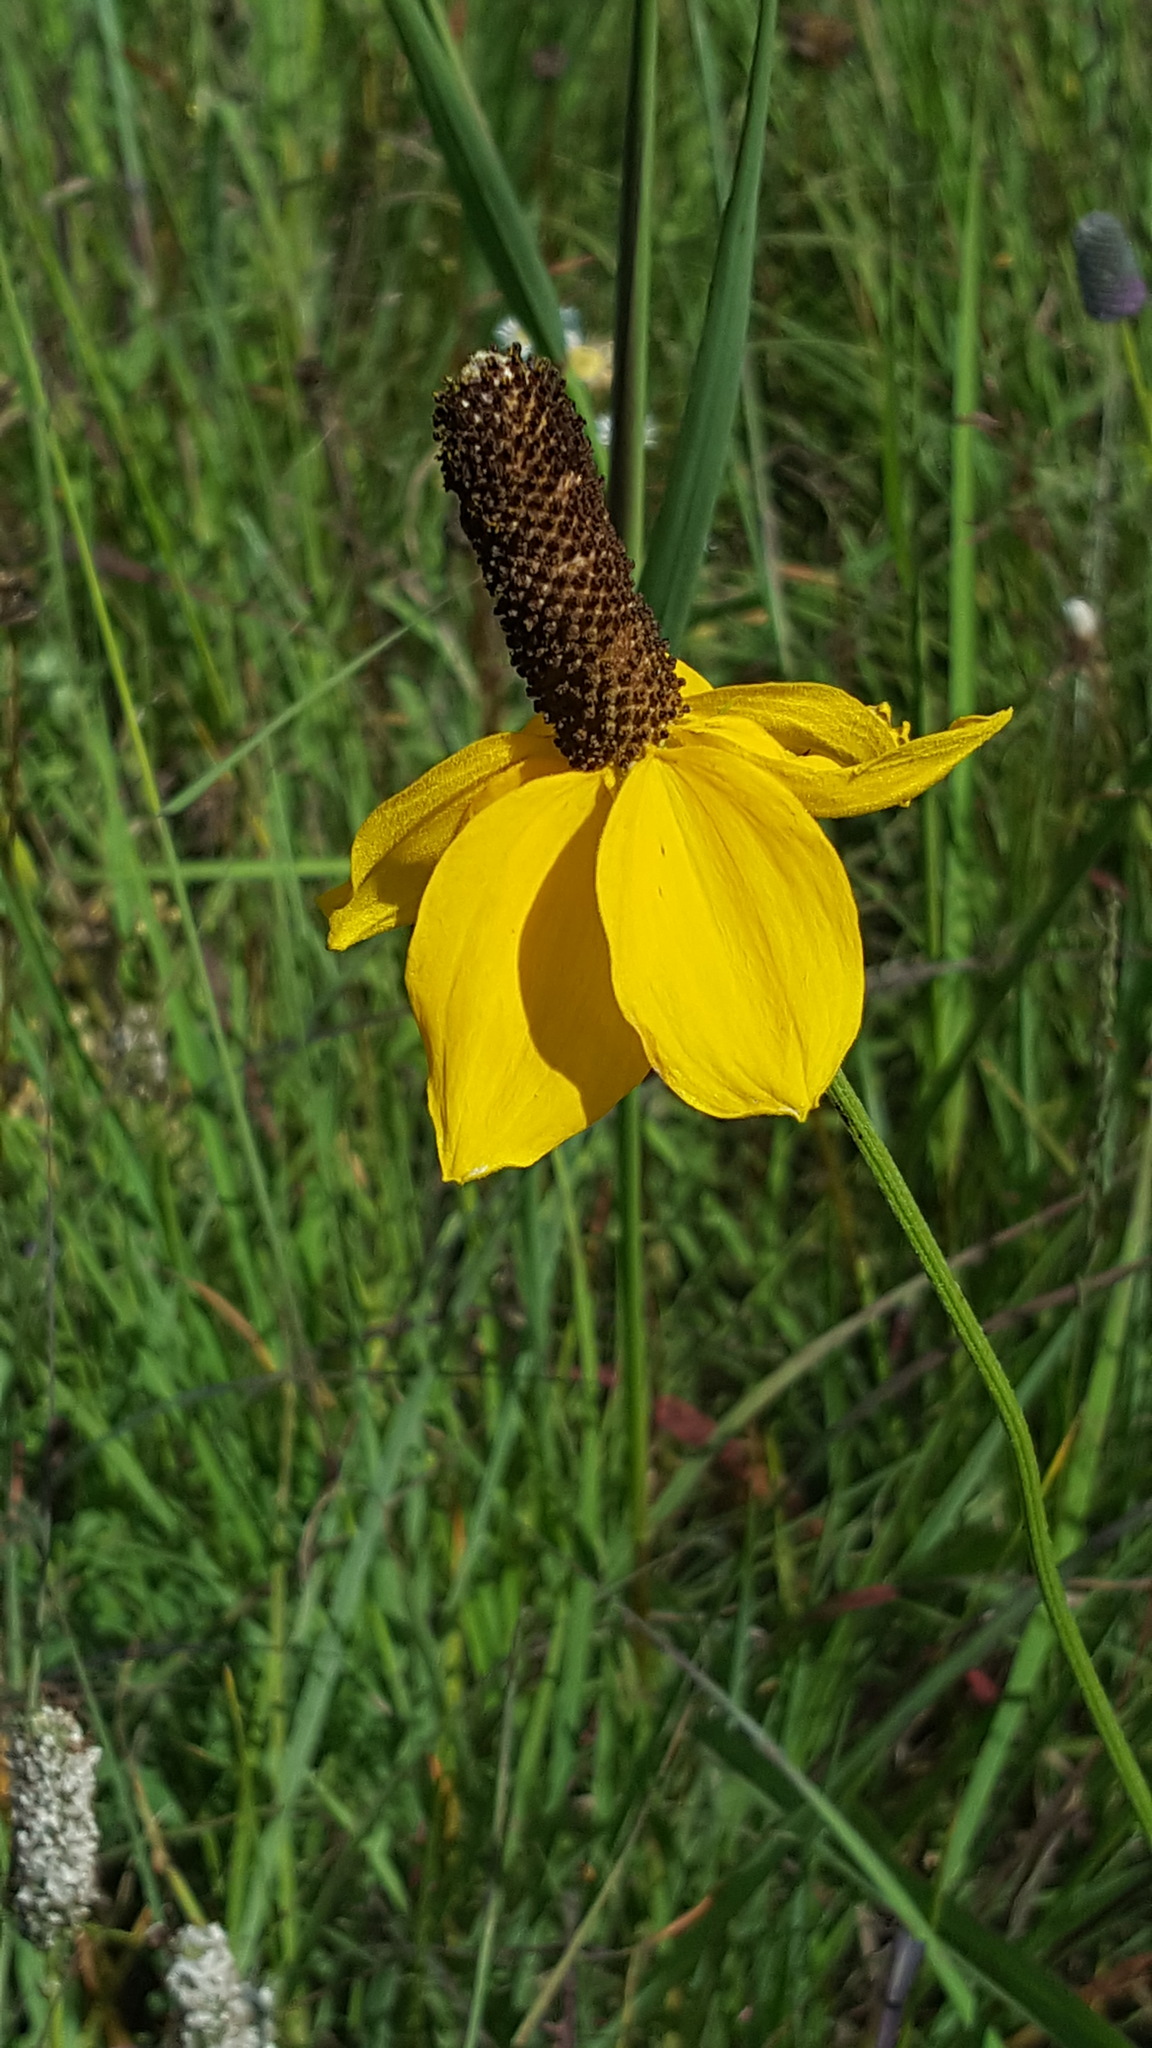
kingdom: Plantae
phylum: Tracheophyta
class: Magnoliopsida
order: Asterales
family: Asteraceae
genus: Ratibida
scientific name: Ratibida columnifera
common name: Prairie coneflower
